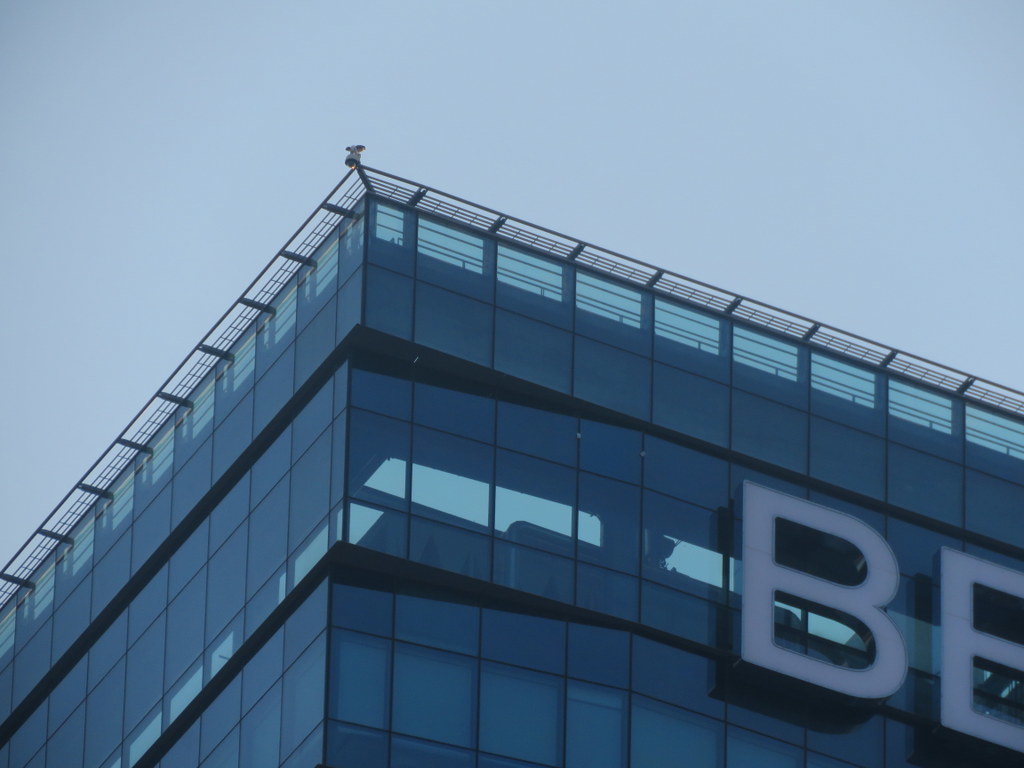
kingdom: Animalia
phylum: Chordata
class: Aves
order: Falconiformes
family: Falconidae
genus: Falco
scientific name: Falco peregrinus
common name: Peregrine falcon
